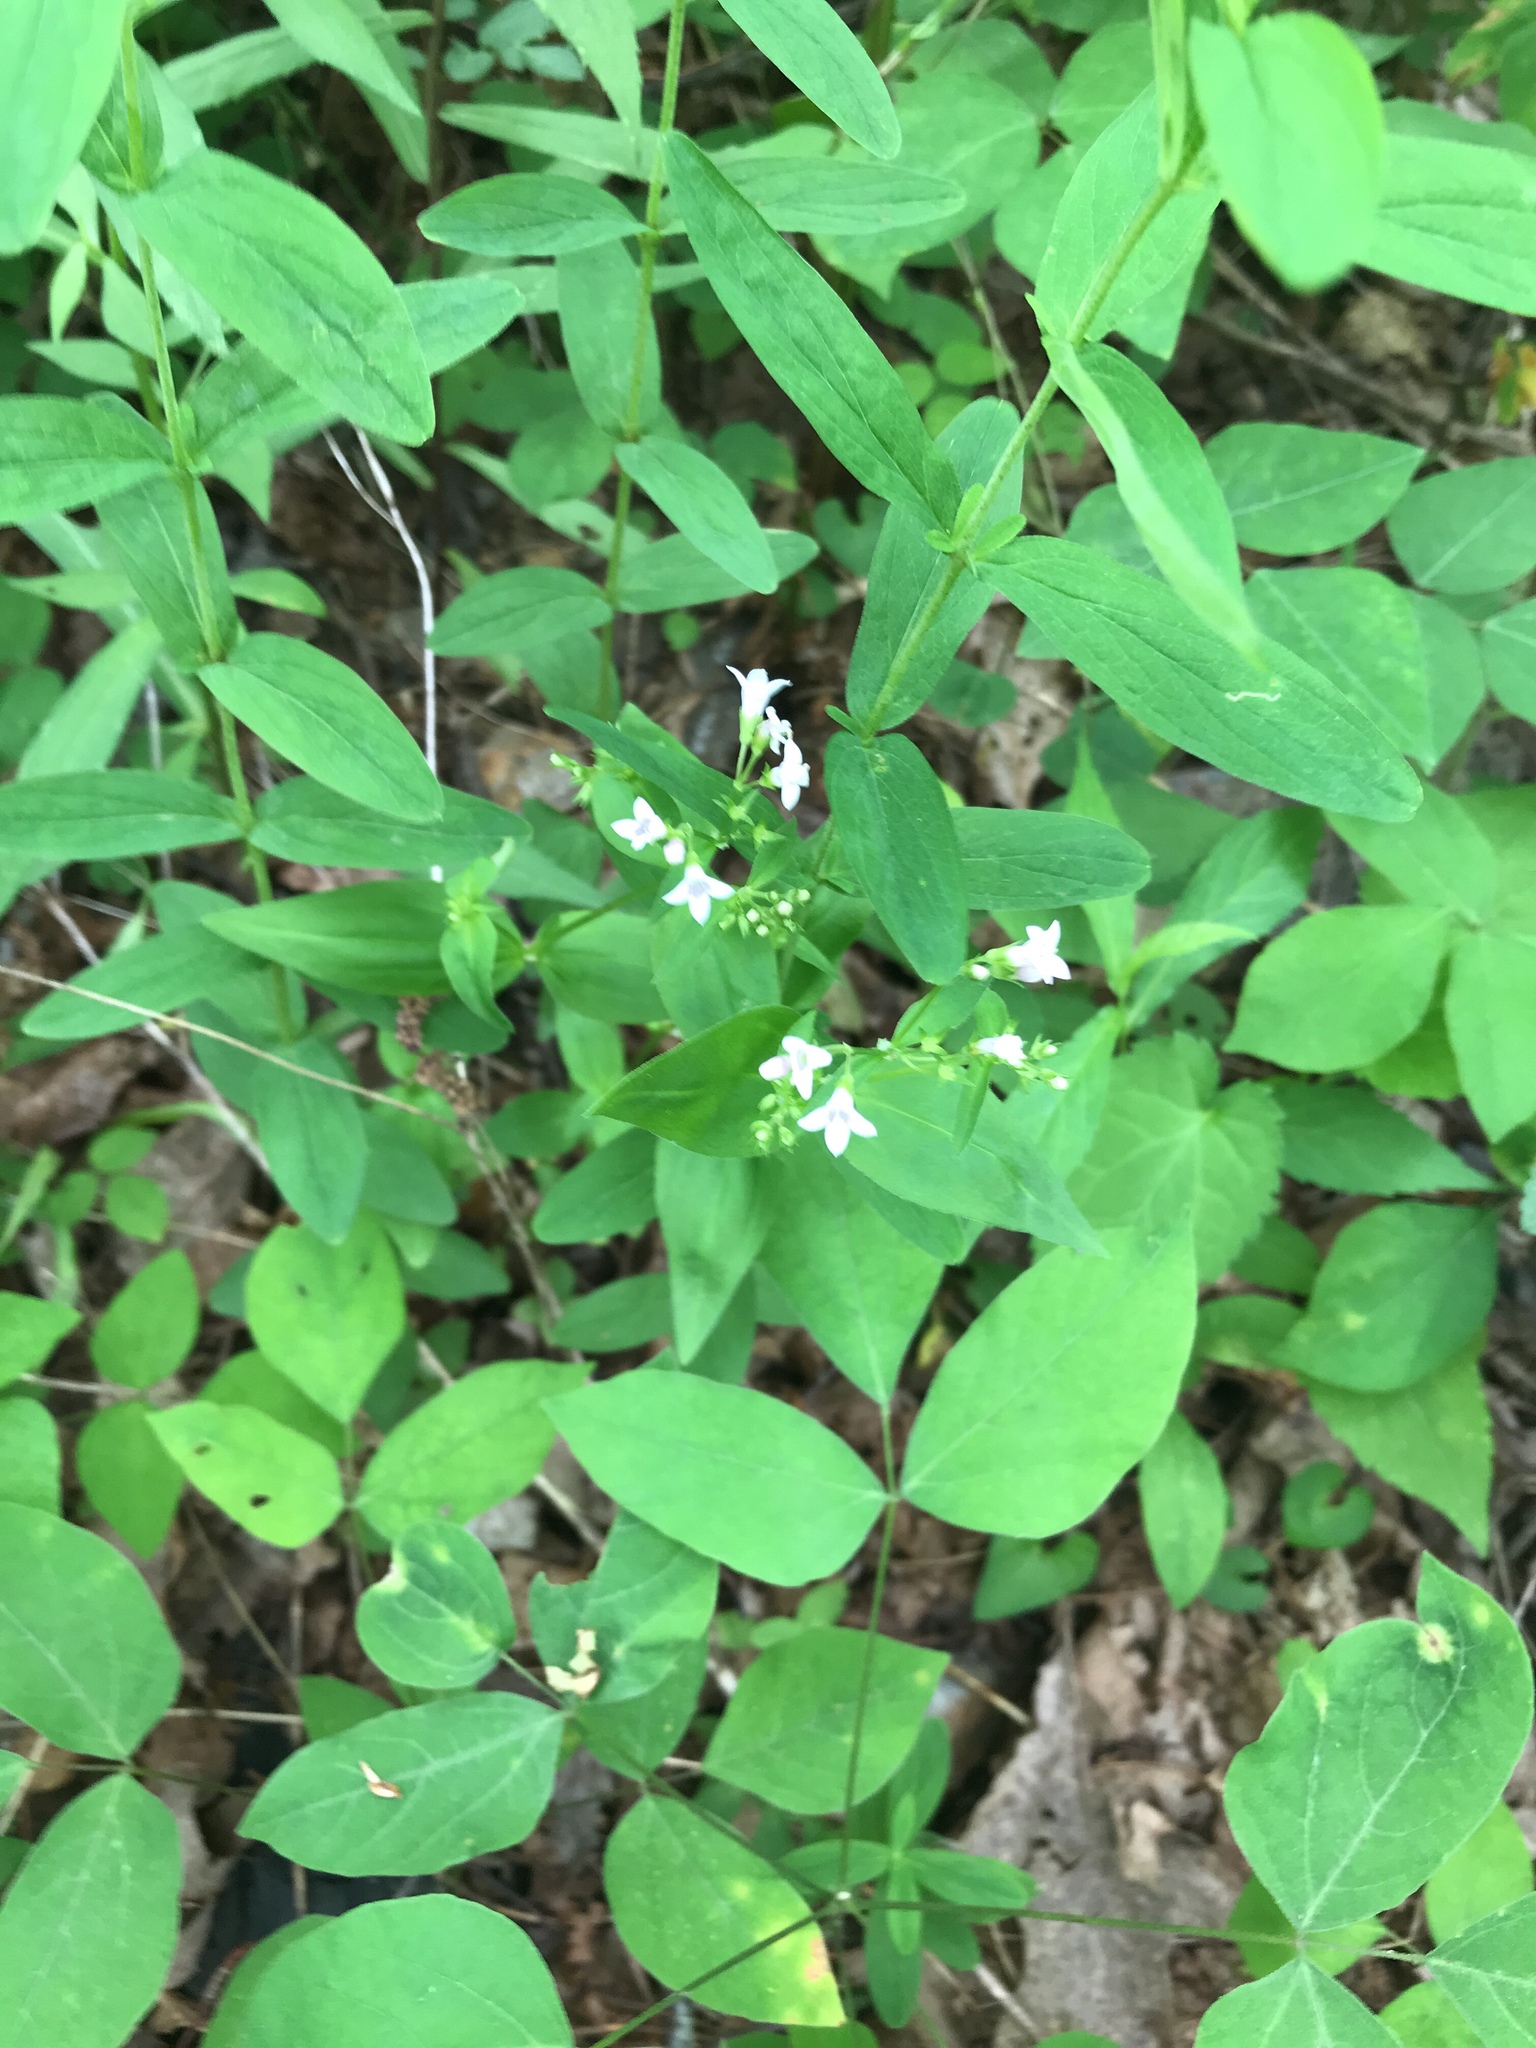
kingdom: Plantae
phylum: Tracheophyta
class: Magnoliopsida
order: Gentianales
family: Rubiaceae
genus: Houstonia
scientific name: Houstonia purpurea
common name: Summer bluet
